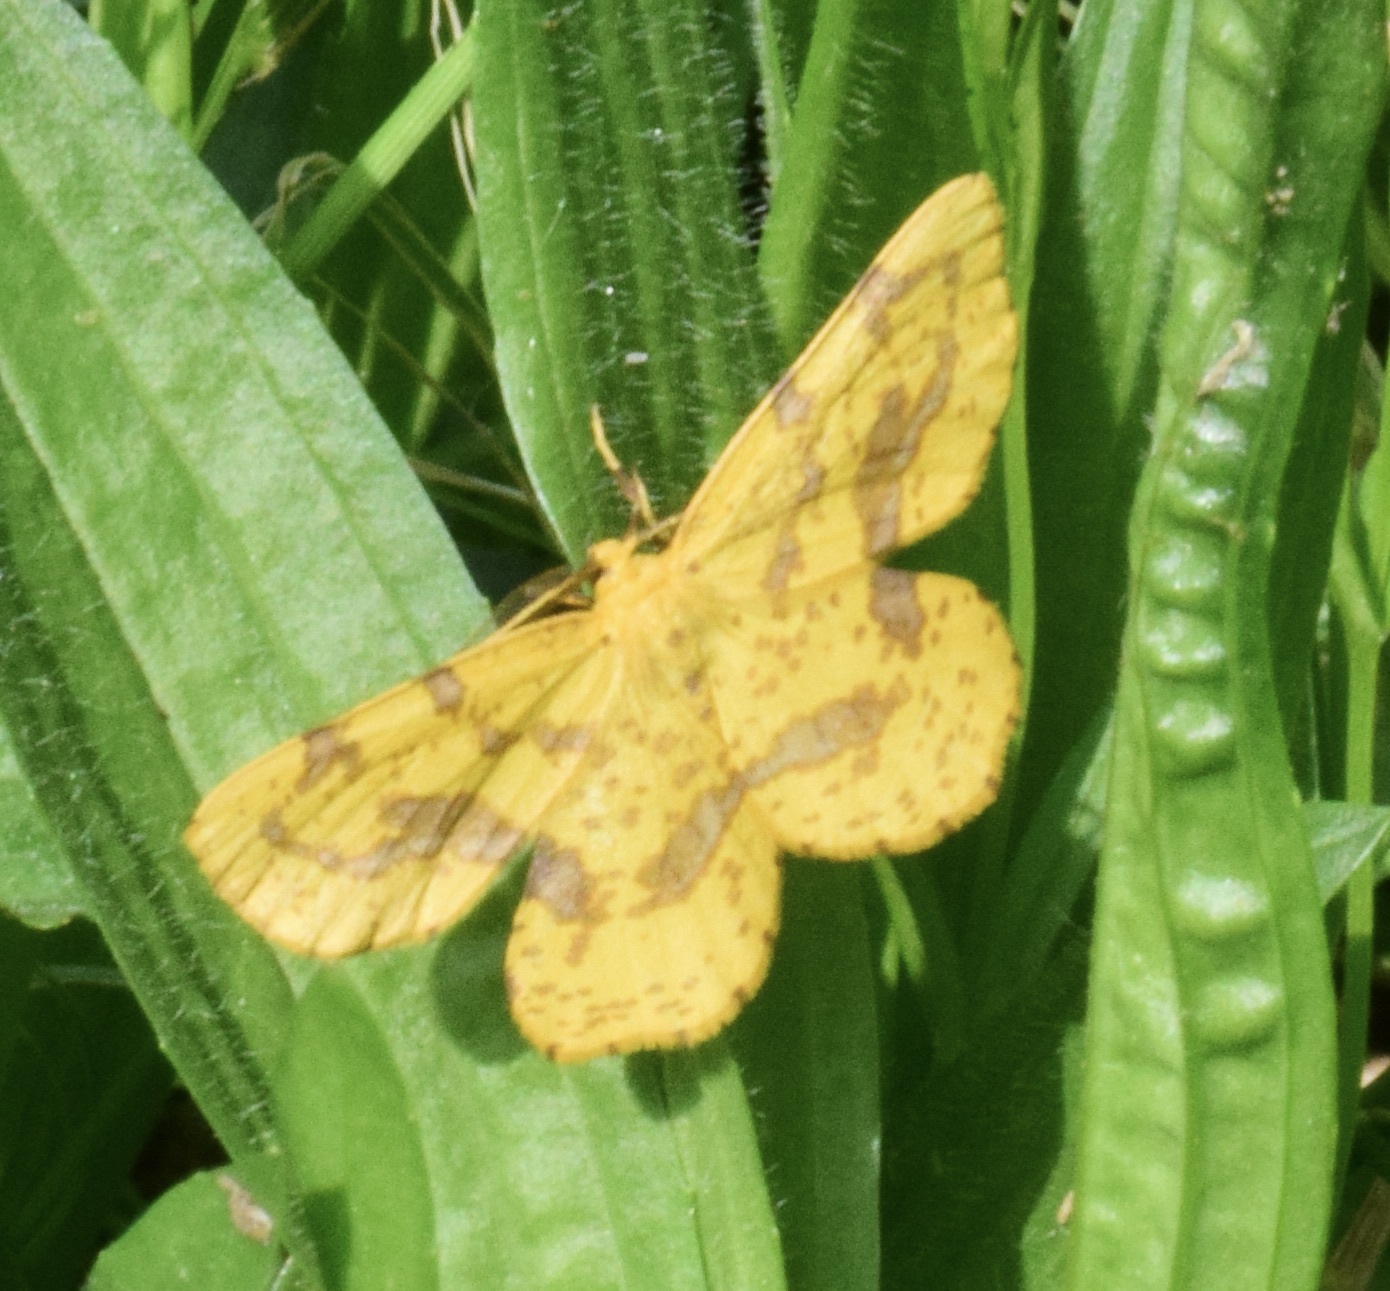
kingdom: Animalia
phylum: Arthropoda
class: Insecta
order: Lepidoptera
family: Geometridae
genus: Xanthotype
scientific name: Xanthotype
